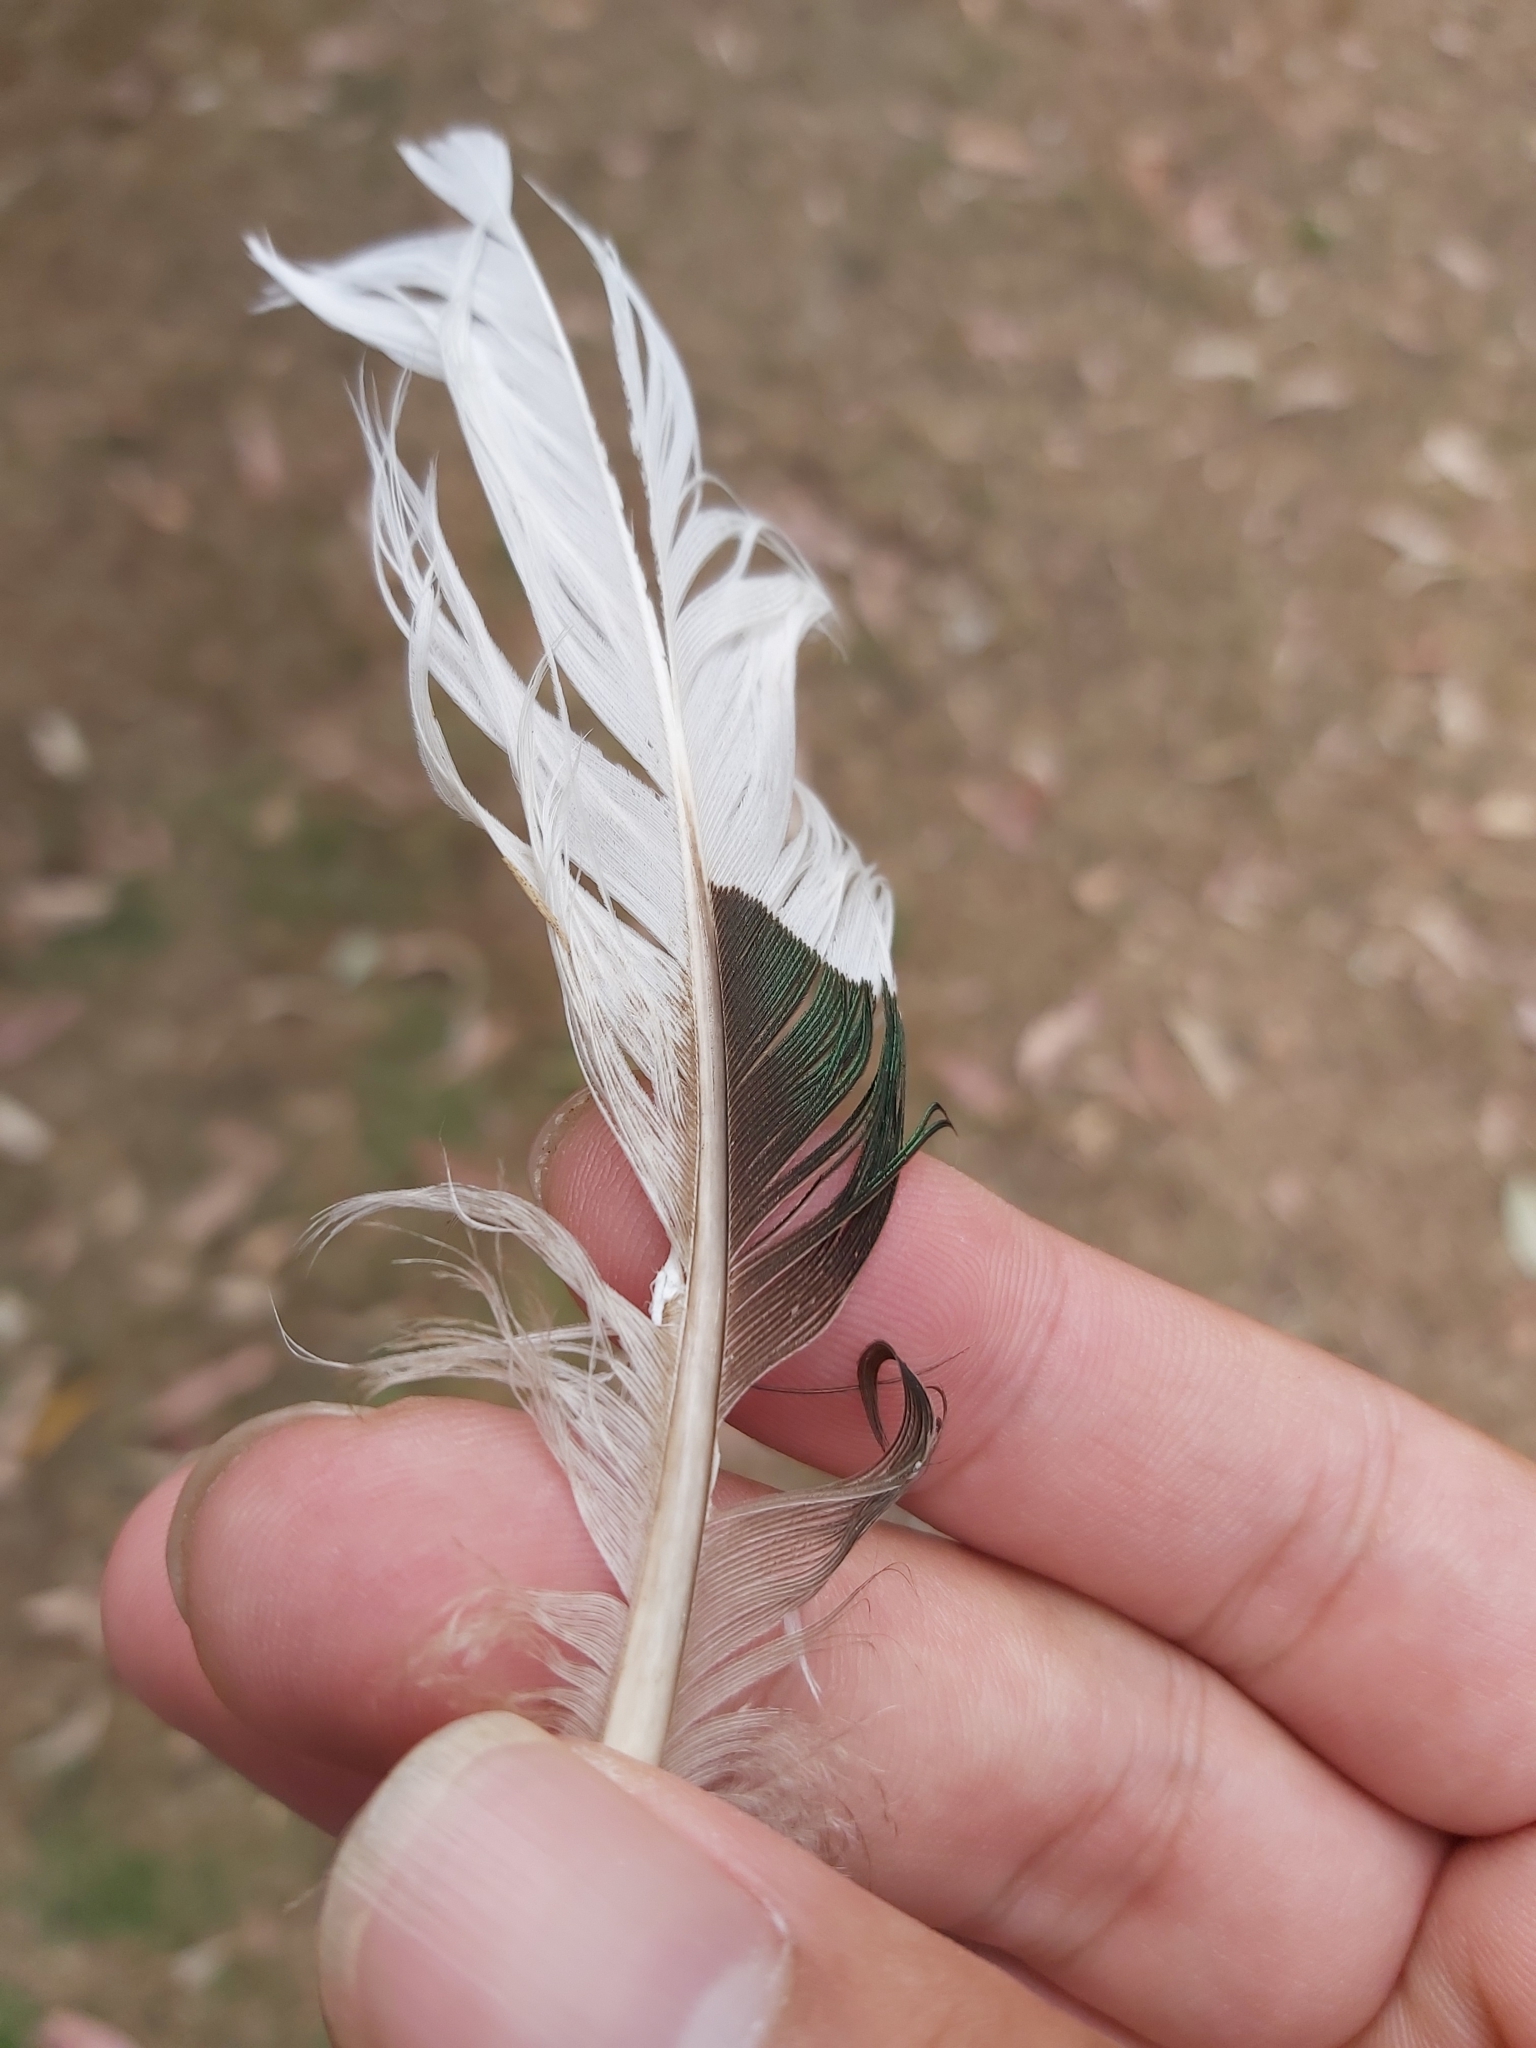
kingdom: Animalia
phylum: Chordata
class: Aves
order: Anseriformes
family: Anatidae
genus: Chenonetta
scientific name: Chenonetta jubata
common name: Maned duck
